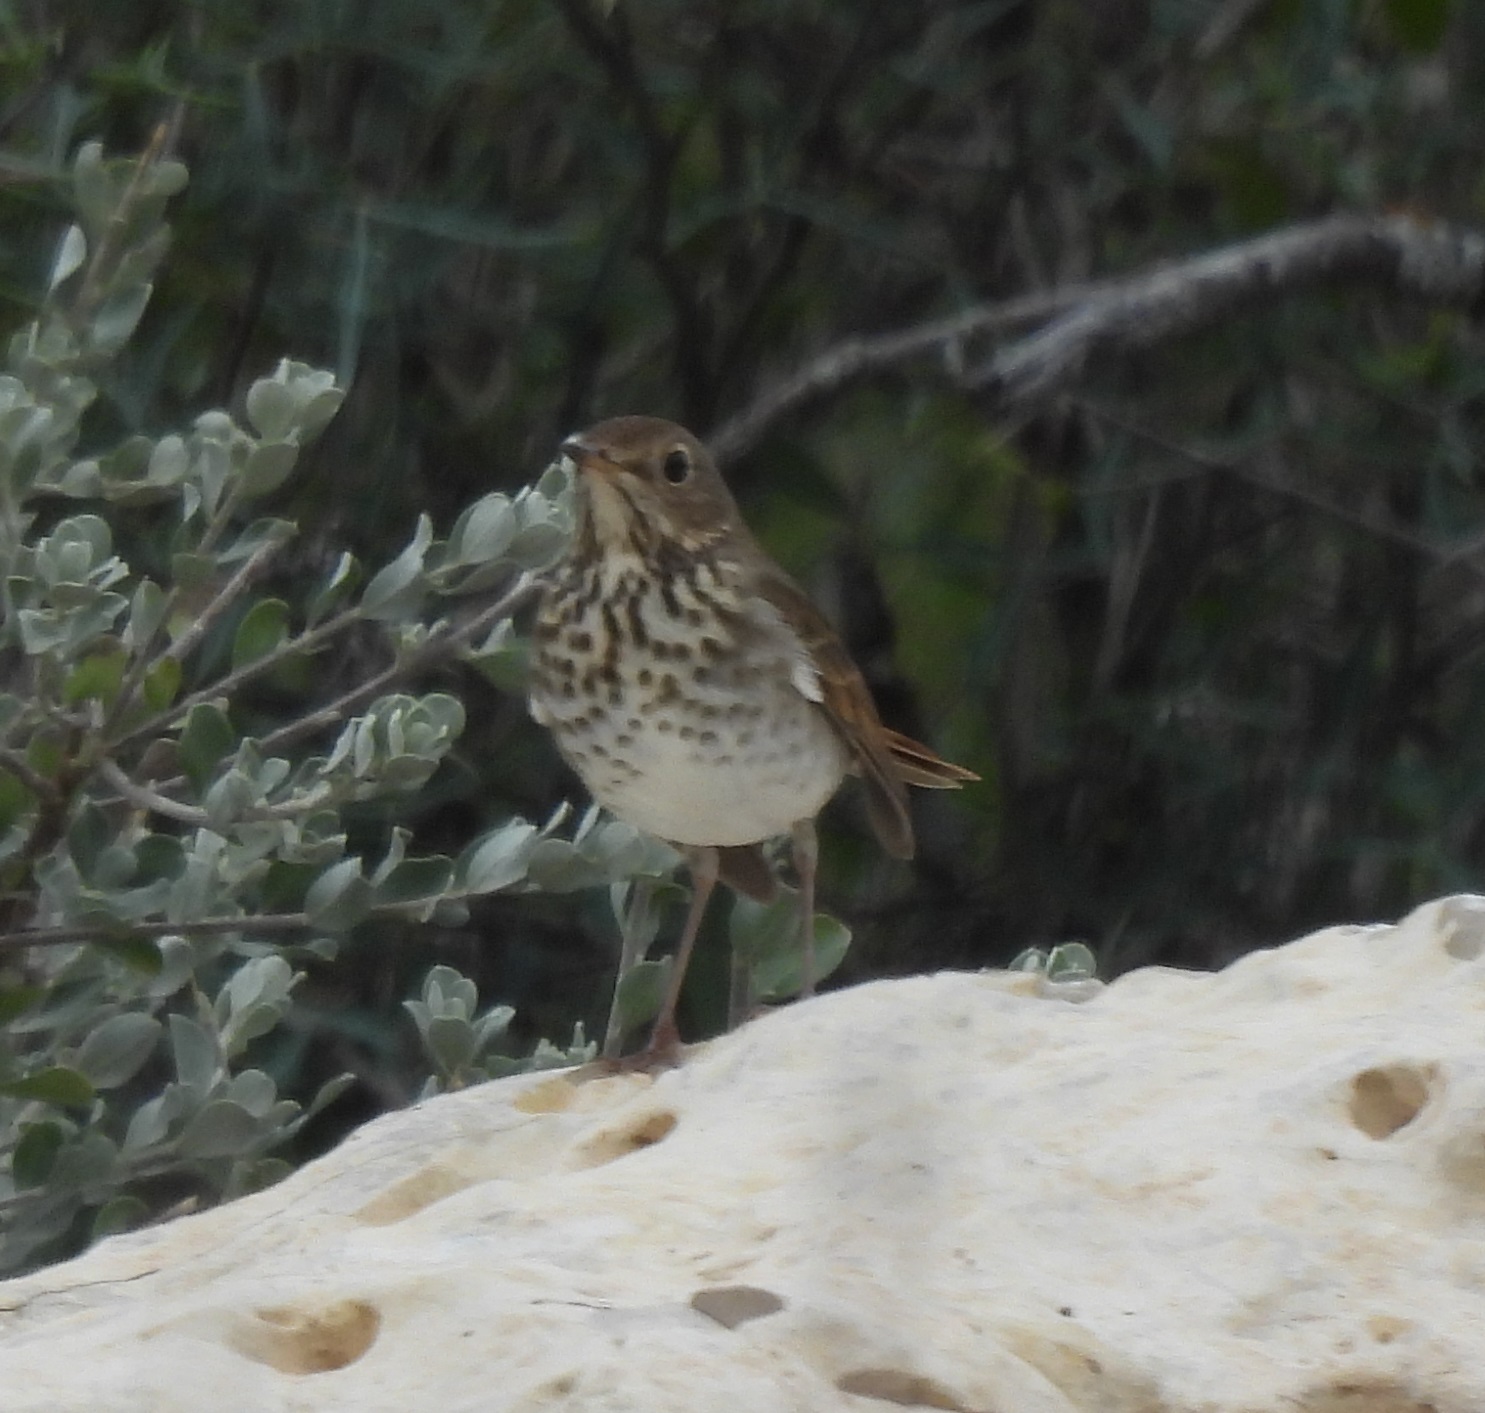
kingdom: Animalia
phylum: Chordata
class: Aves
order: Passeriformes
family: Turdidae
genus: Catharus
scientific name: Catharus guttatus
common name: Hermit thrush
